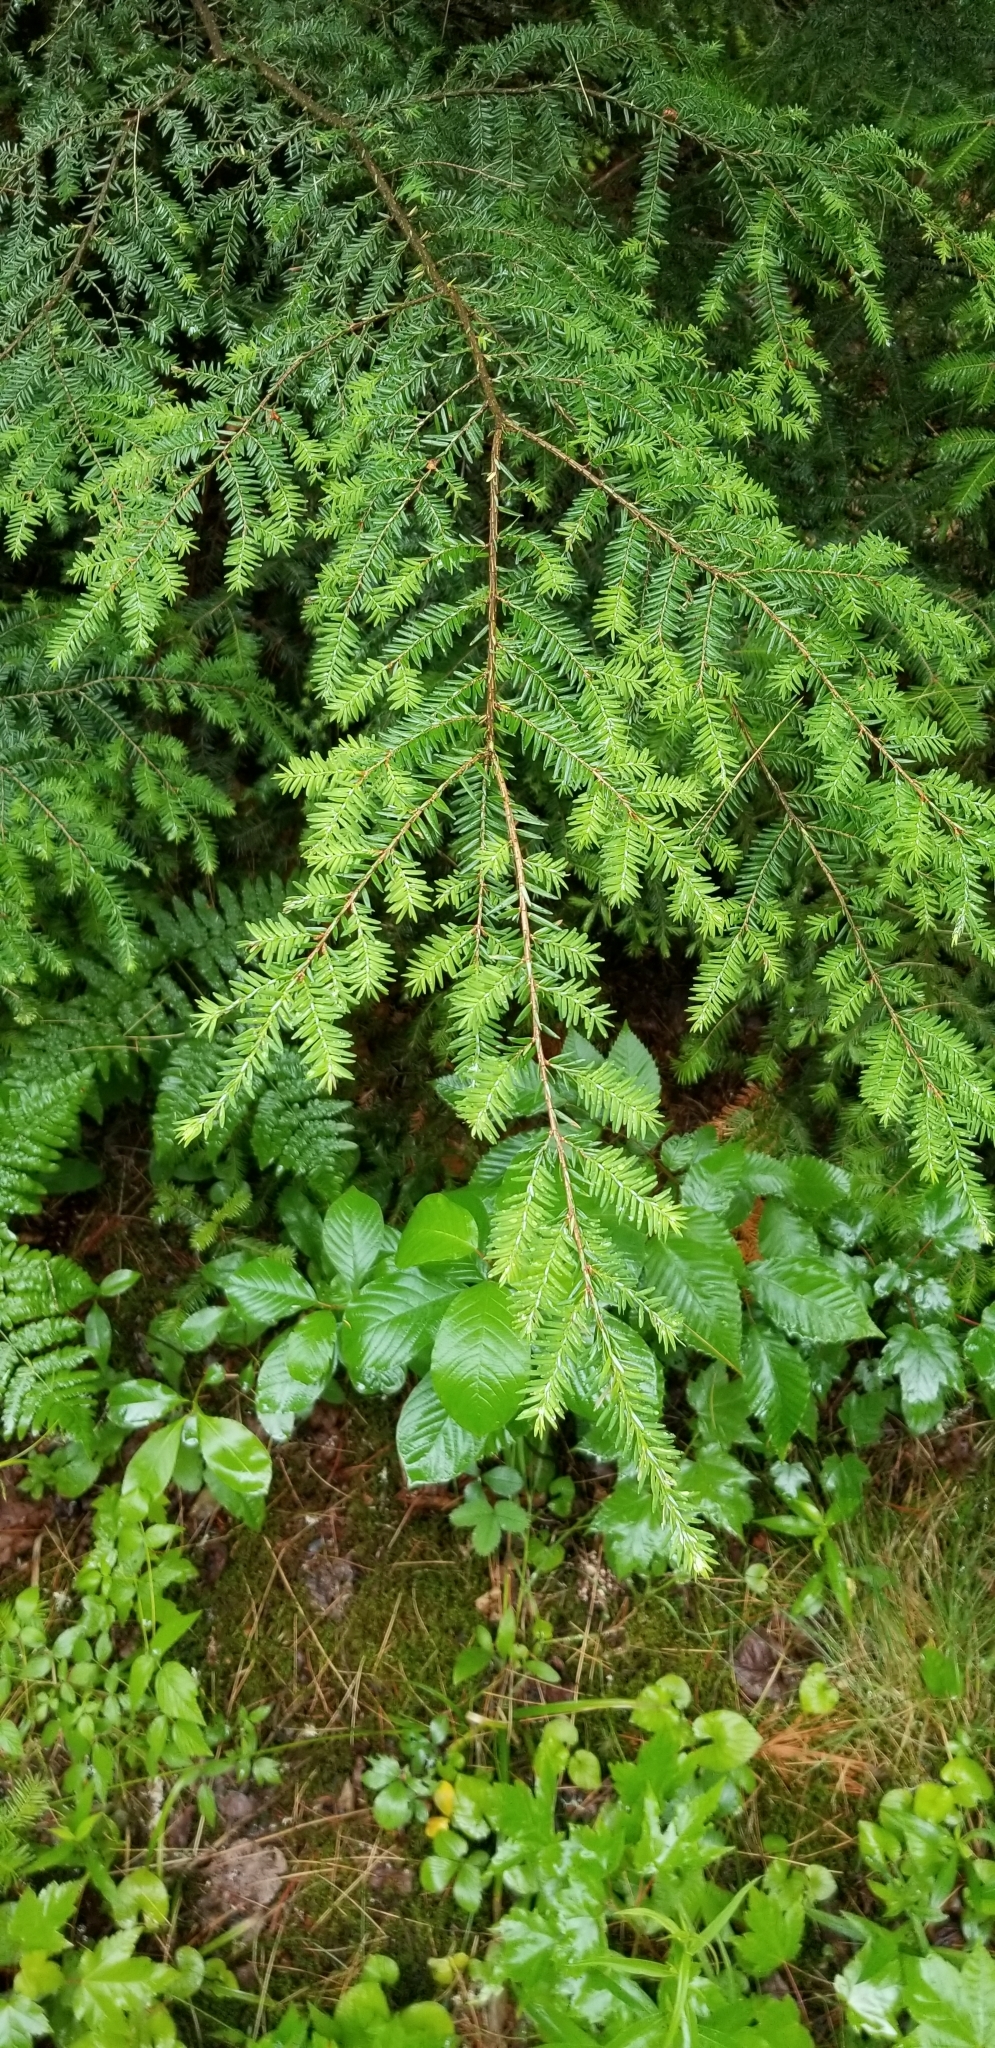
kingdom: Plantae
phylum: Tracheophyta
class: Pinopsida
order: Pinales
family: Pinaceae
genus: Tsuga
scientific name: Tsuga canadensis
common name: Eastern hemlock
